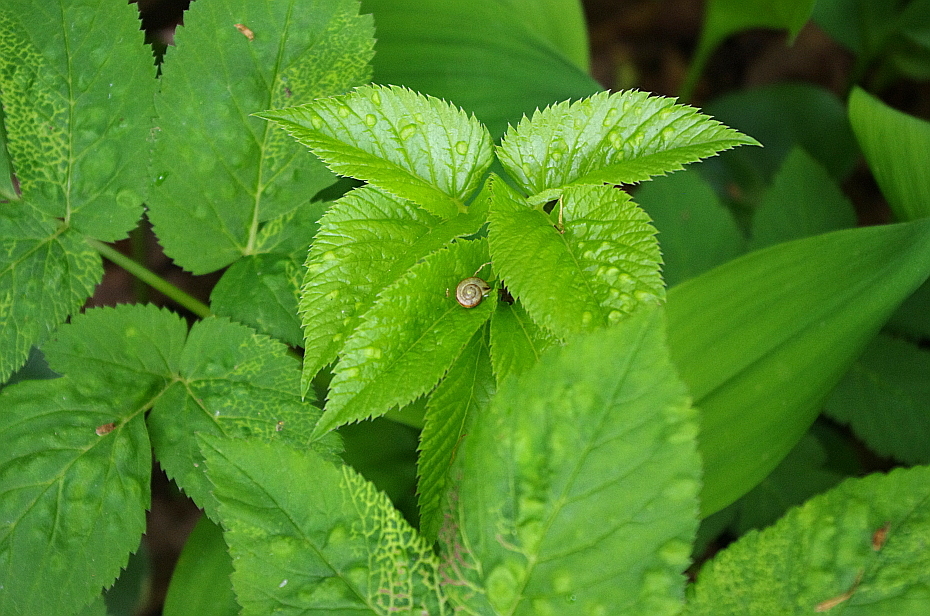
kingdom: Plantae
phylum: Tracheophyta
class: Magnoliopsida
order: Apiales
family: Apiaceae
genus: Aegopodium
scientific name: Aegopodium podagraria
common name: Ground-elder
